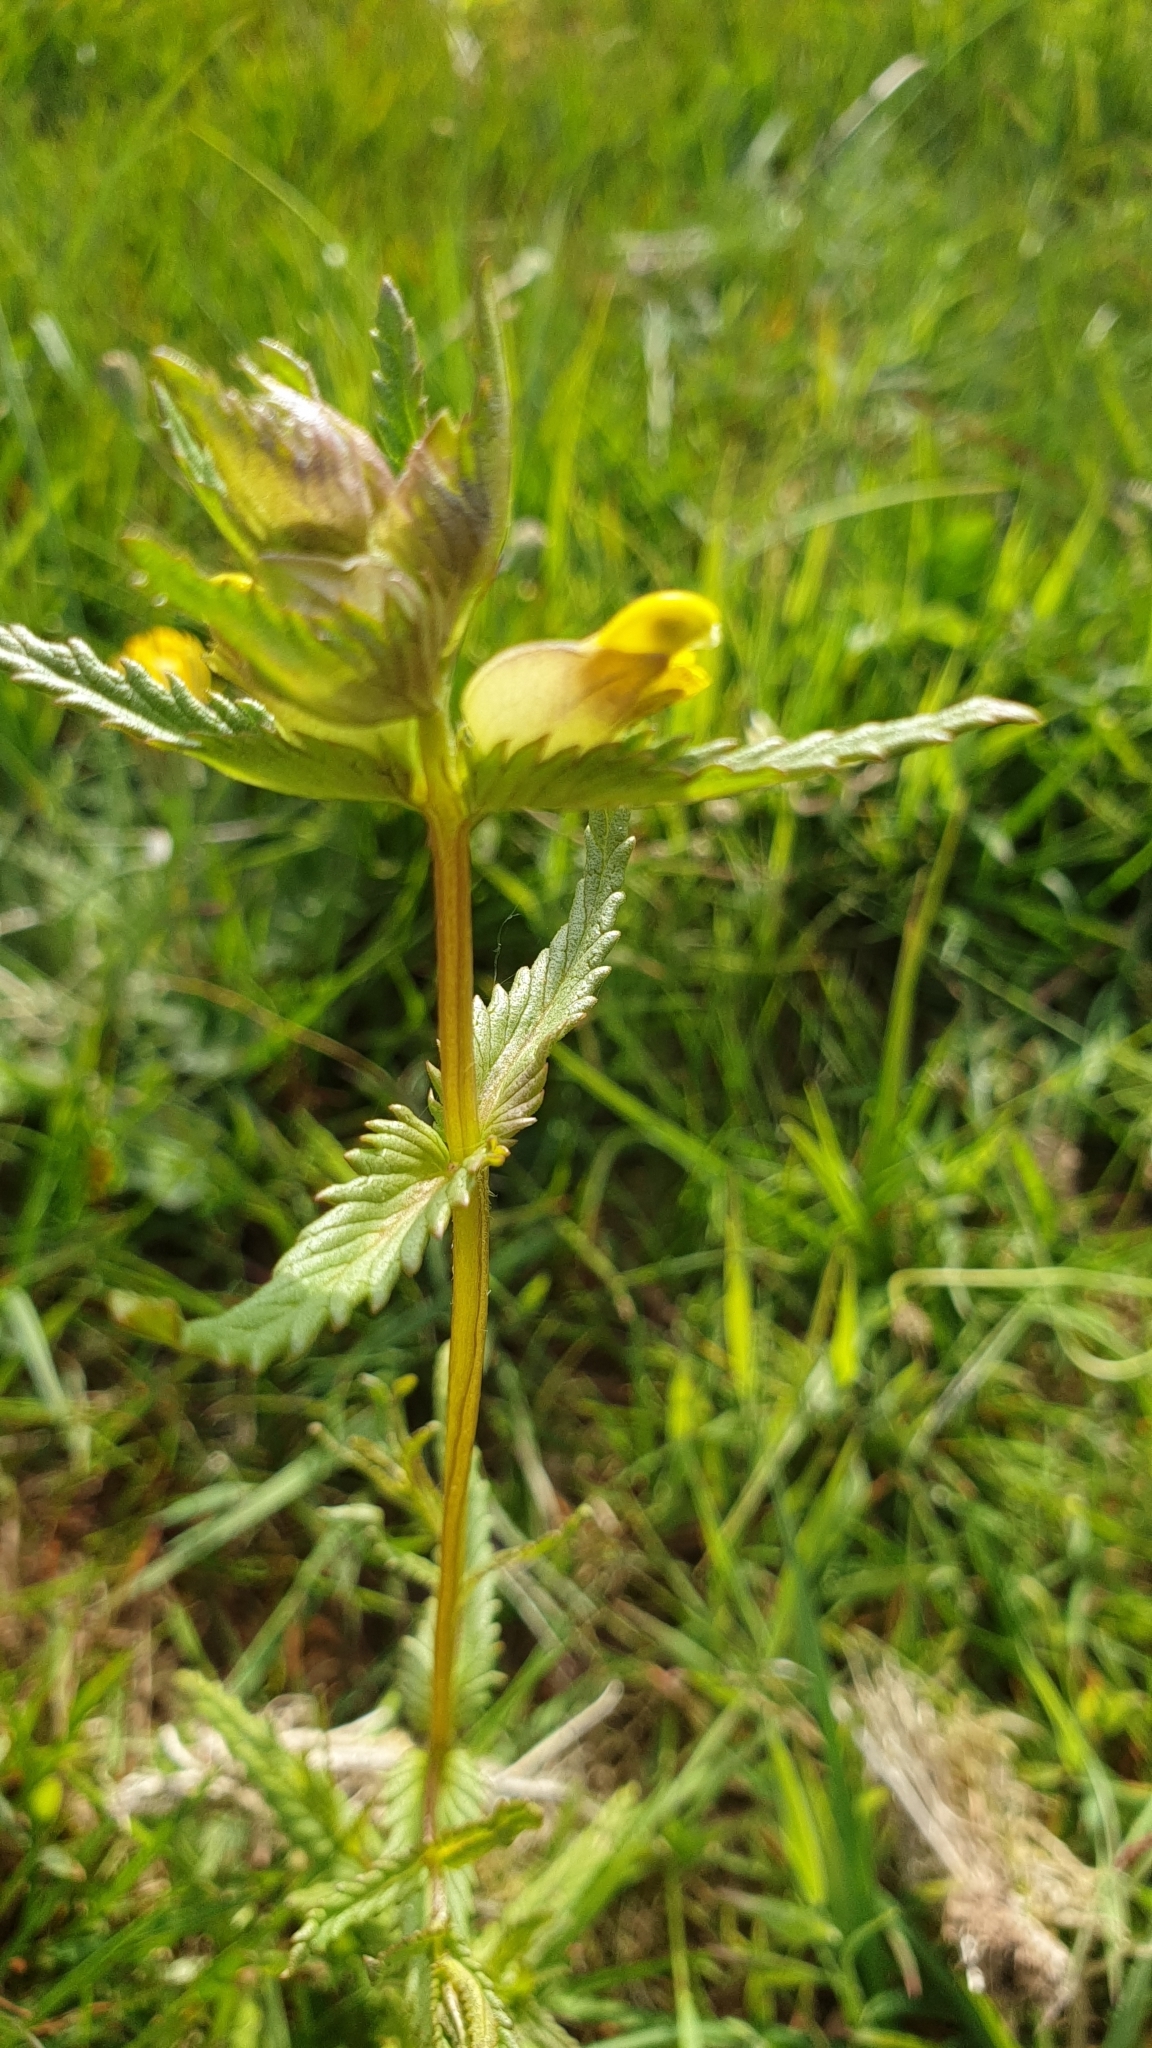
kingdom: Plantae
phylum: Tracheophyta
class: Magnoliopsida
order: Lamiales
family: Orobanchaceae
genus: Rhinanthus
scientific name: Rhinanthus minor
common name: Yellow-rattle
